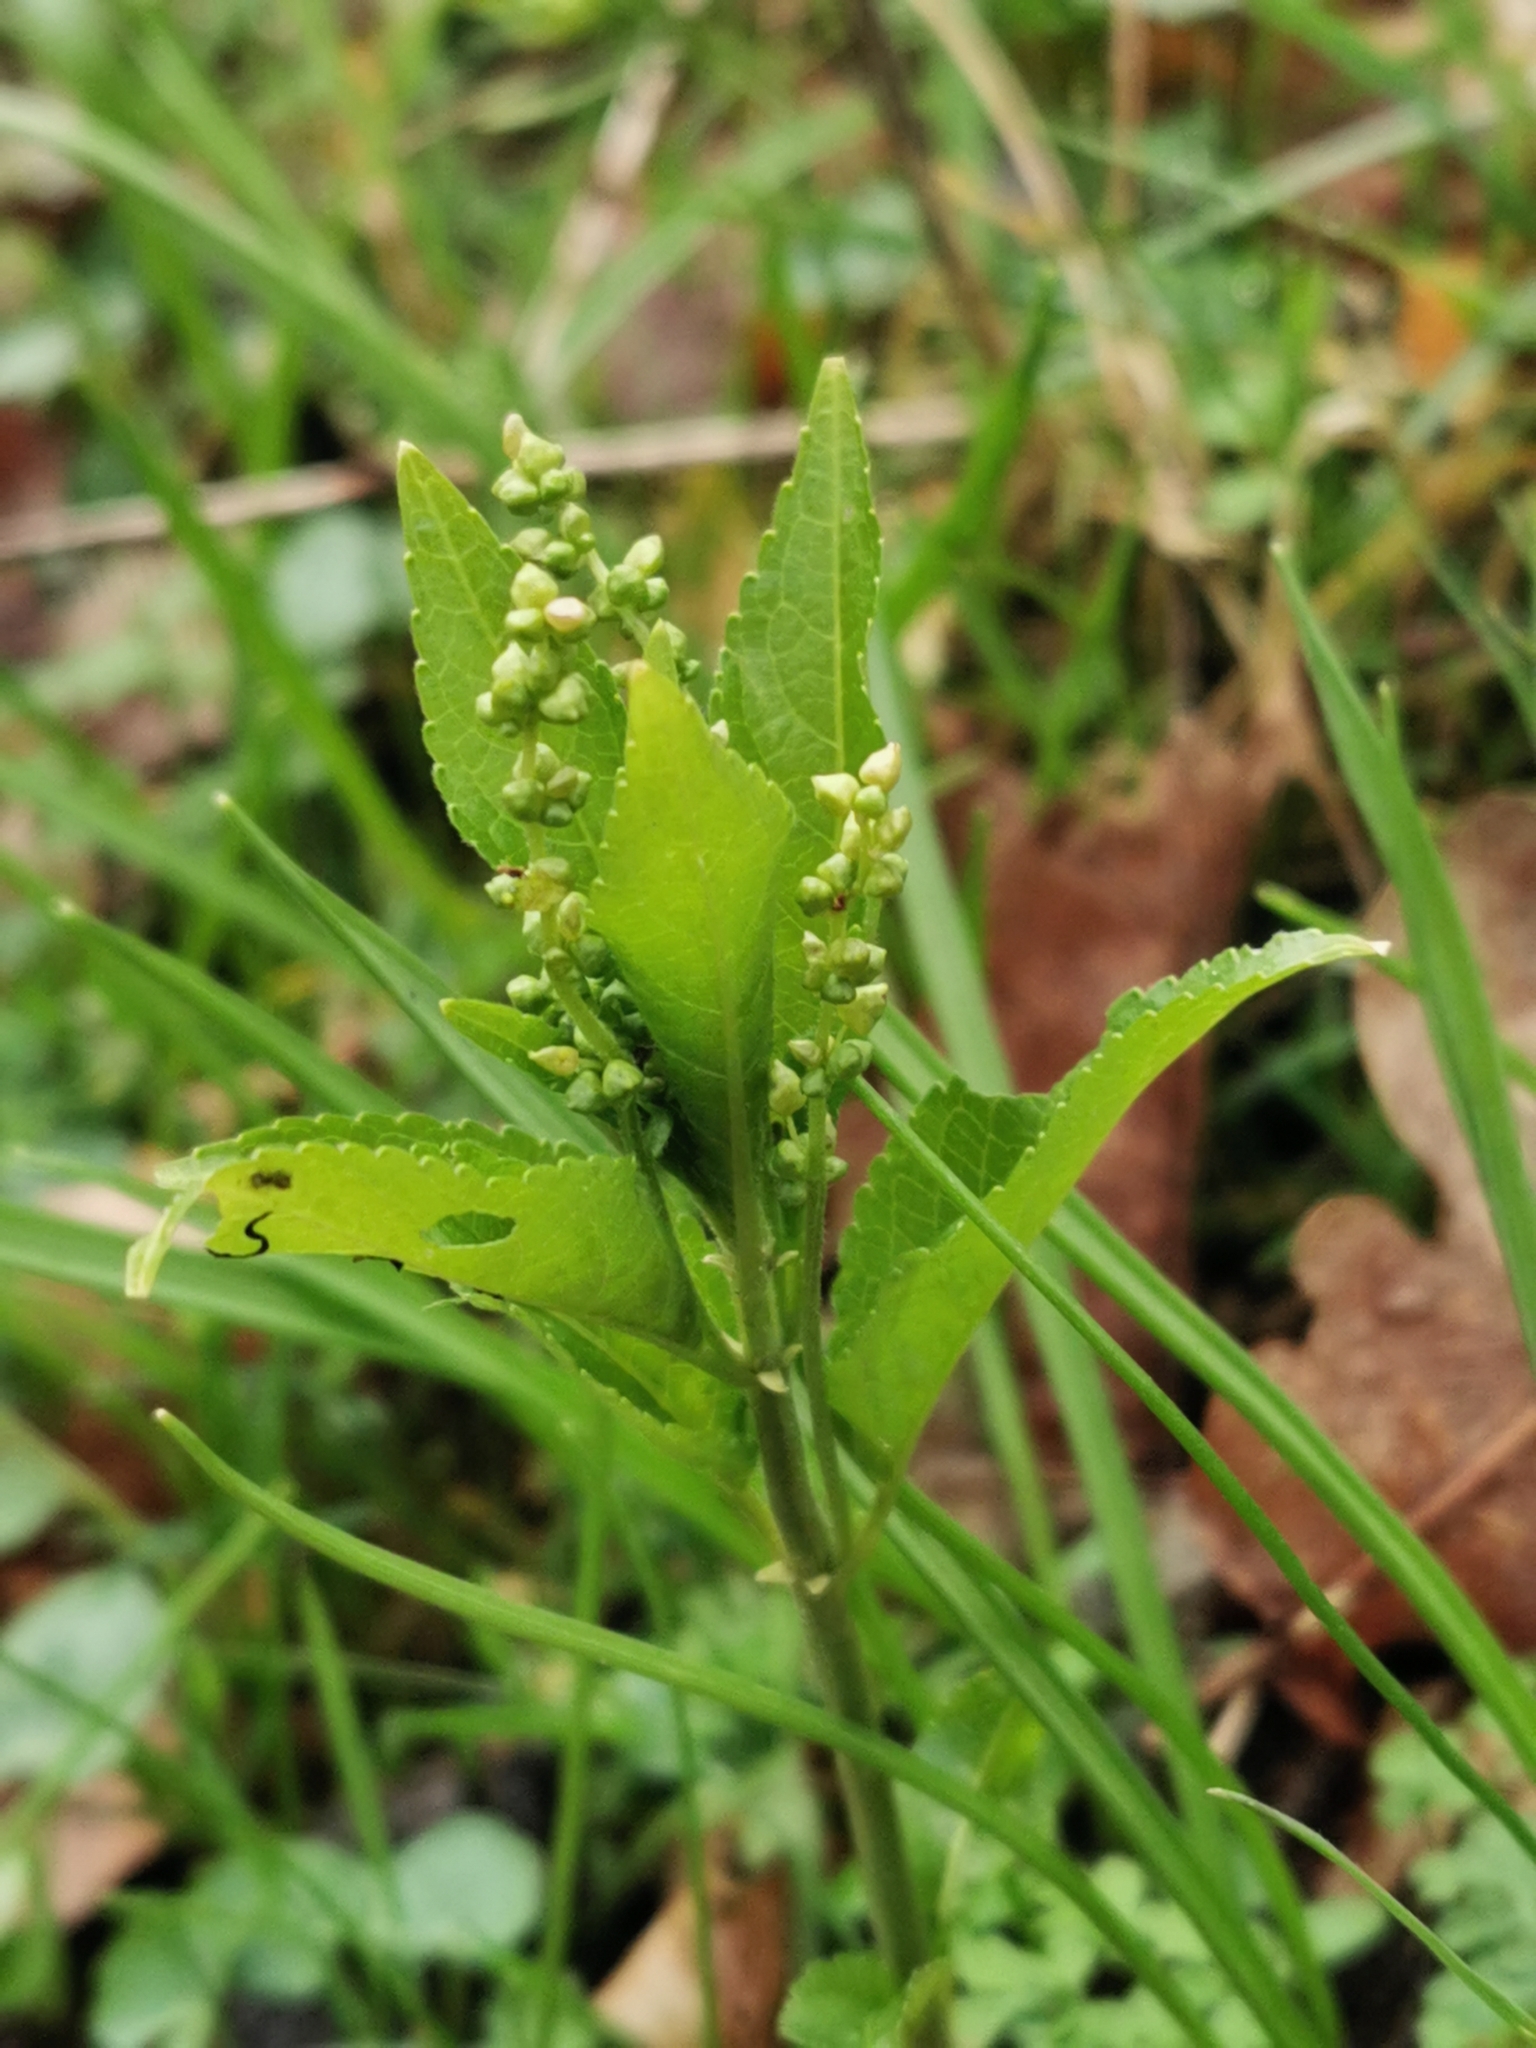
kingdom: Plantae
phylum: Tracheophyta
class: Magnoliopsida
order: Malpighiales
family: Euphorbiaceae
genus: Mercurialis
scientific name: Mercurialis perennis
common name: Dog mercury
